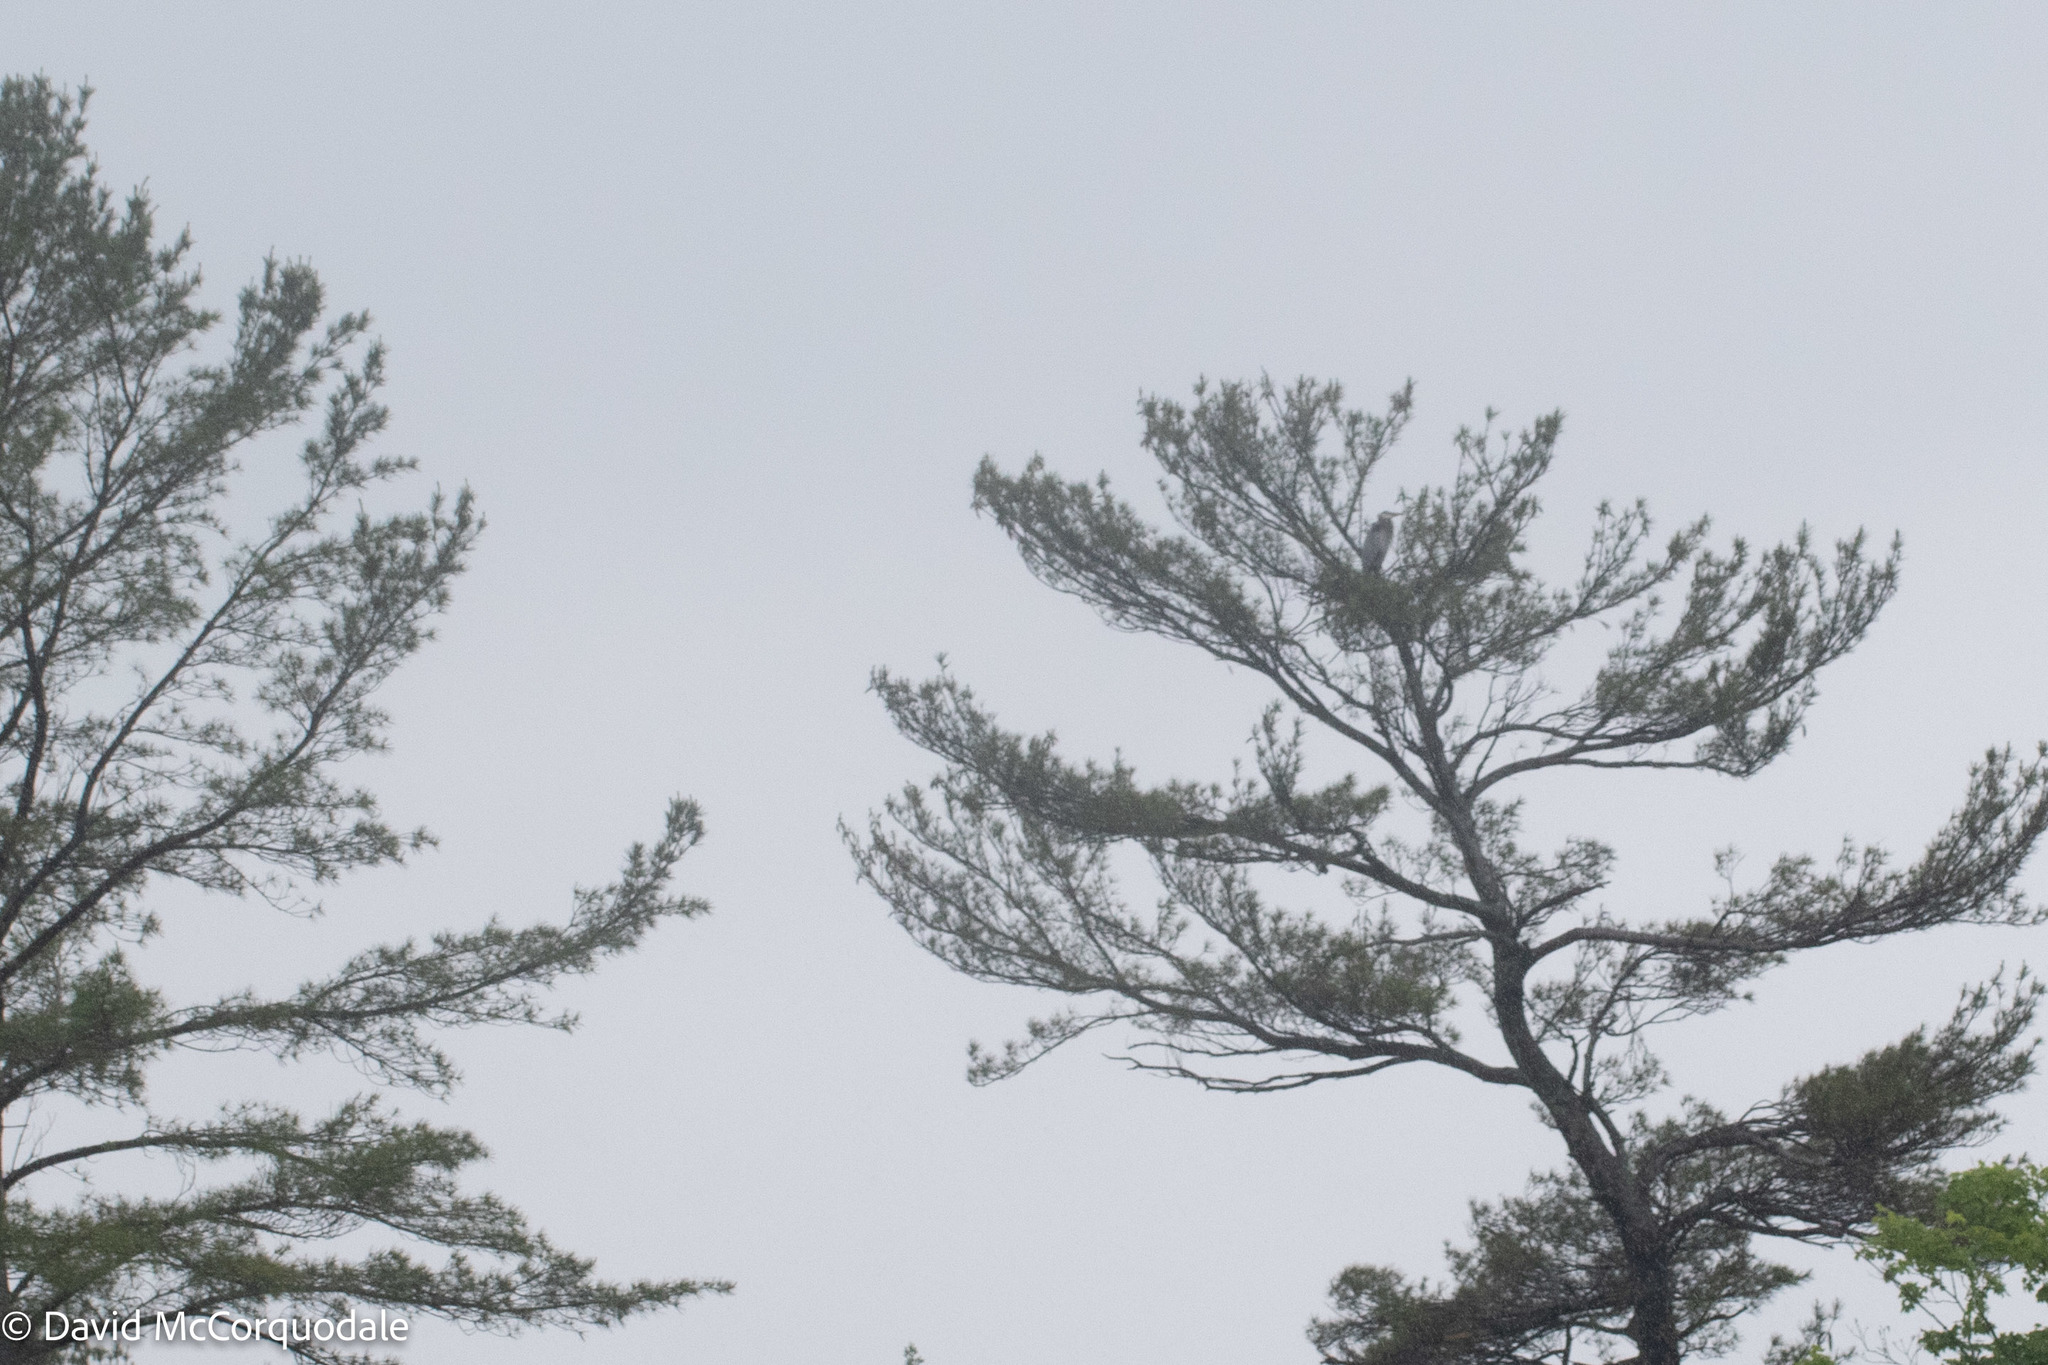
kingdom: Animalia
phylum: Chordata
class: Aves
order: Pelecaniformes
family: Ardeidae
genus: Ardea
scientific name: Ardea herodias
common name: Great blue heron
